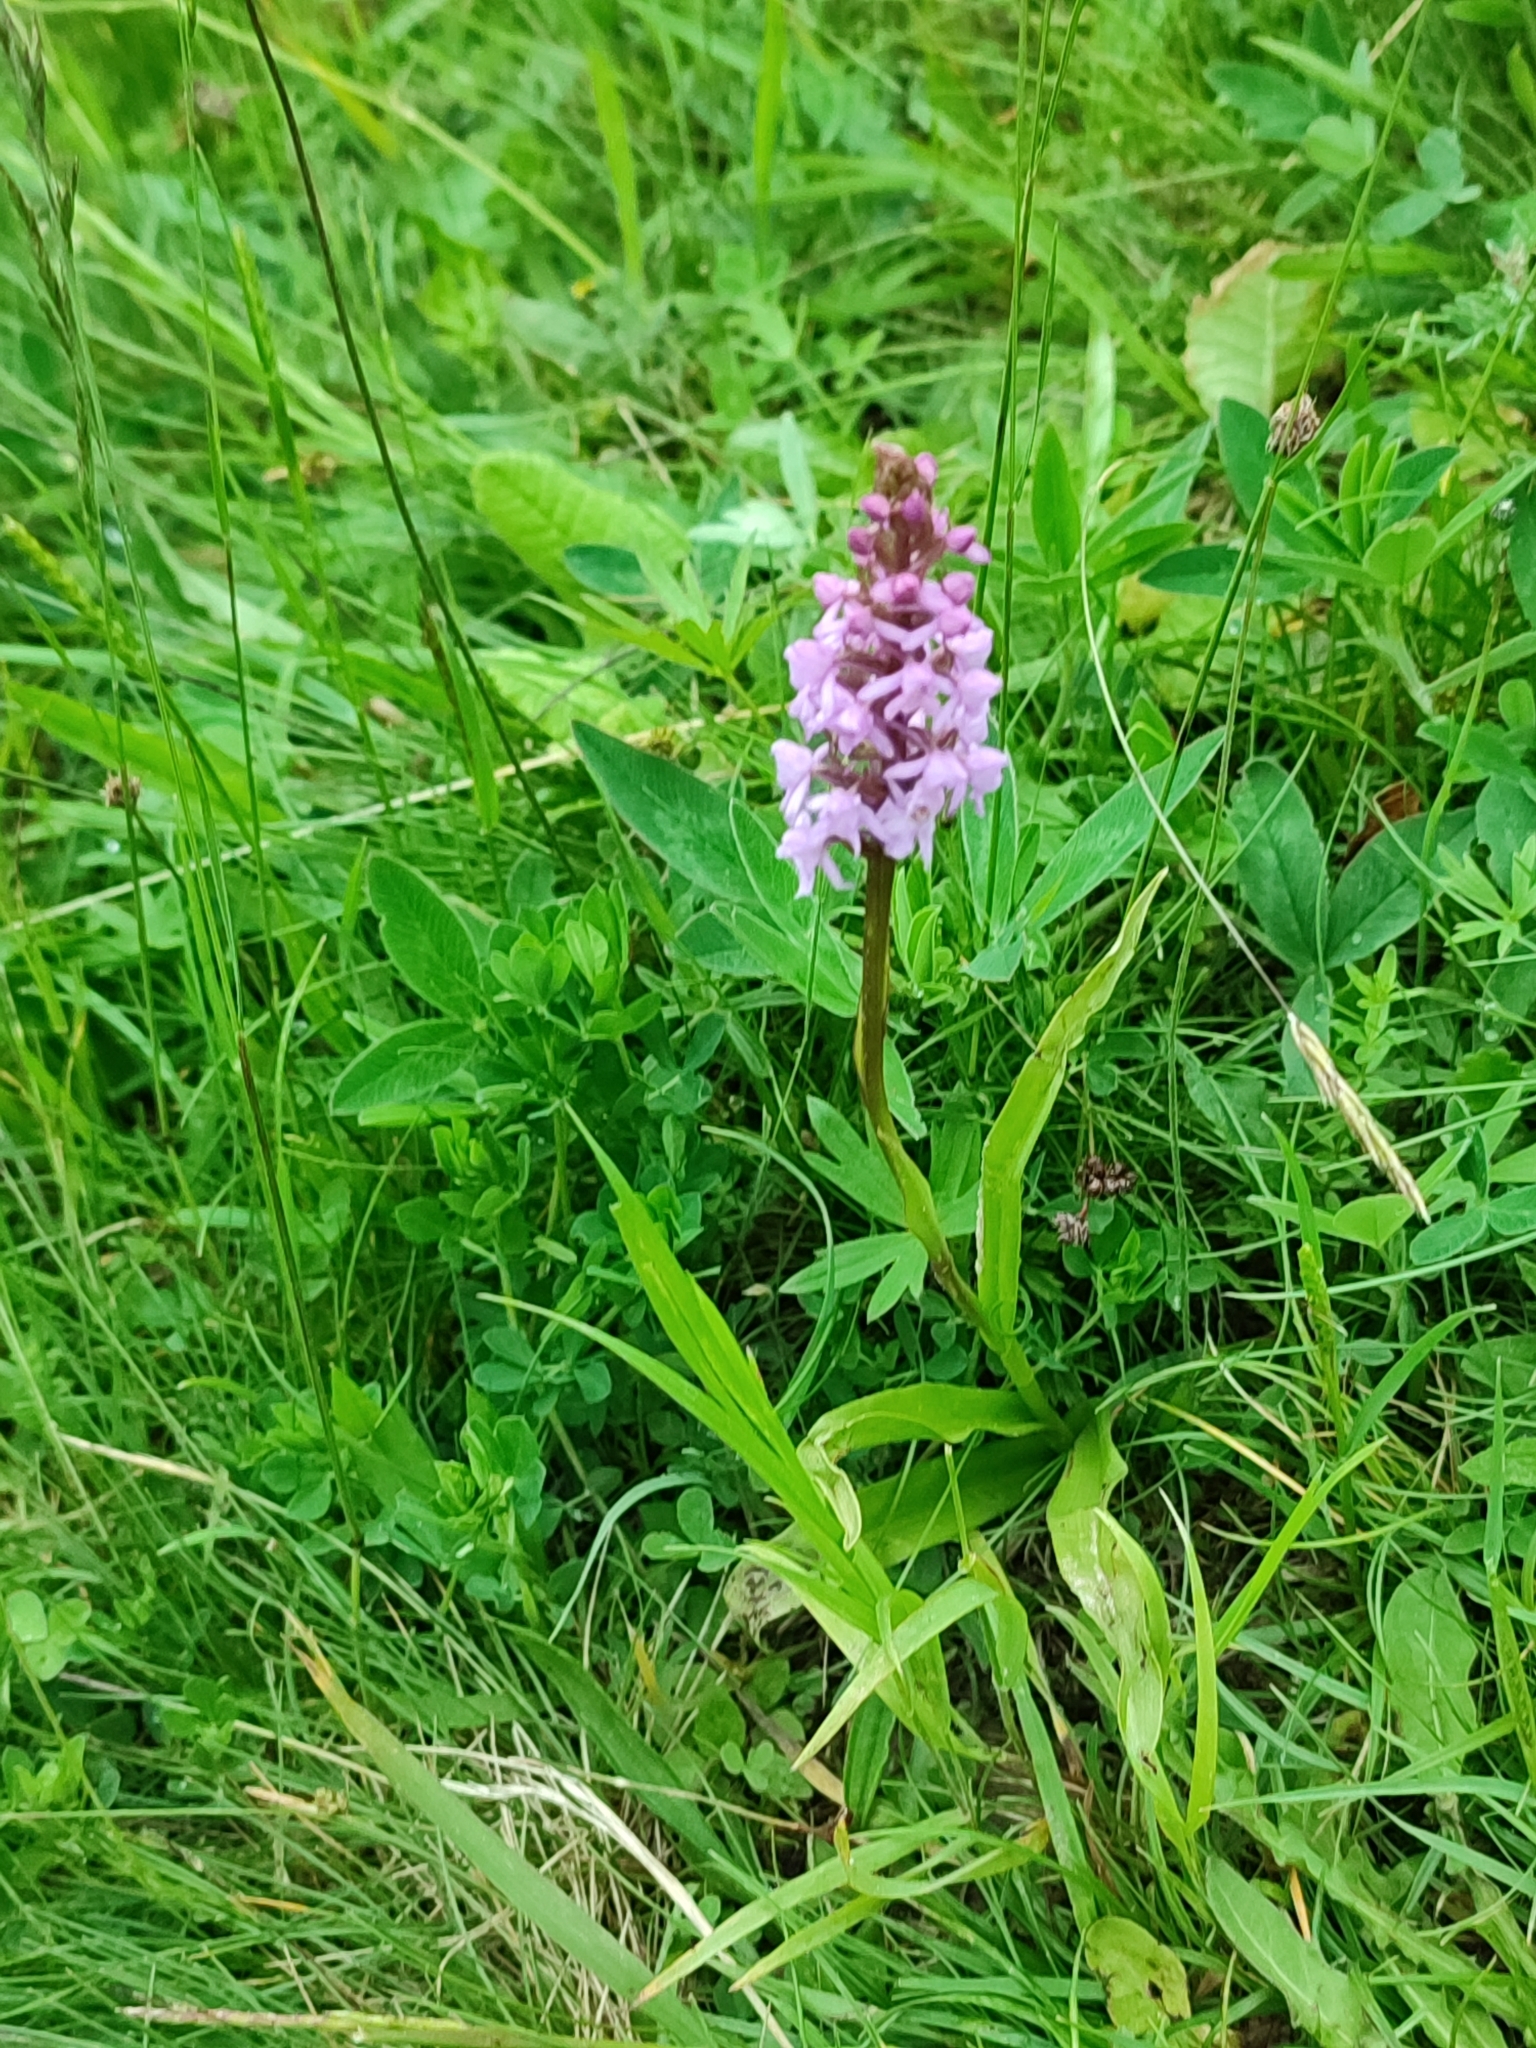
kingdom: Plantae
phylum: Tracheophyta
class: Liliopsida
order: Asparagales
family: Orchidaceae
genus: Gymnadenia
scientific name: Gymnadenia conopsea
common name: Fragrant orchid
